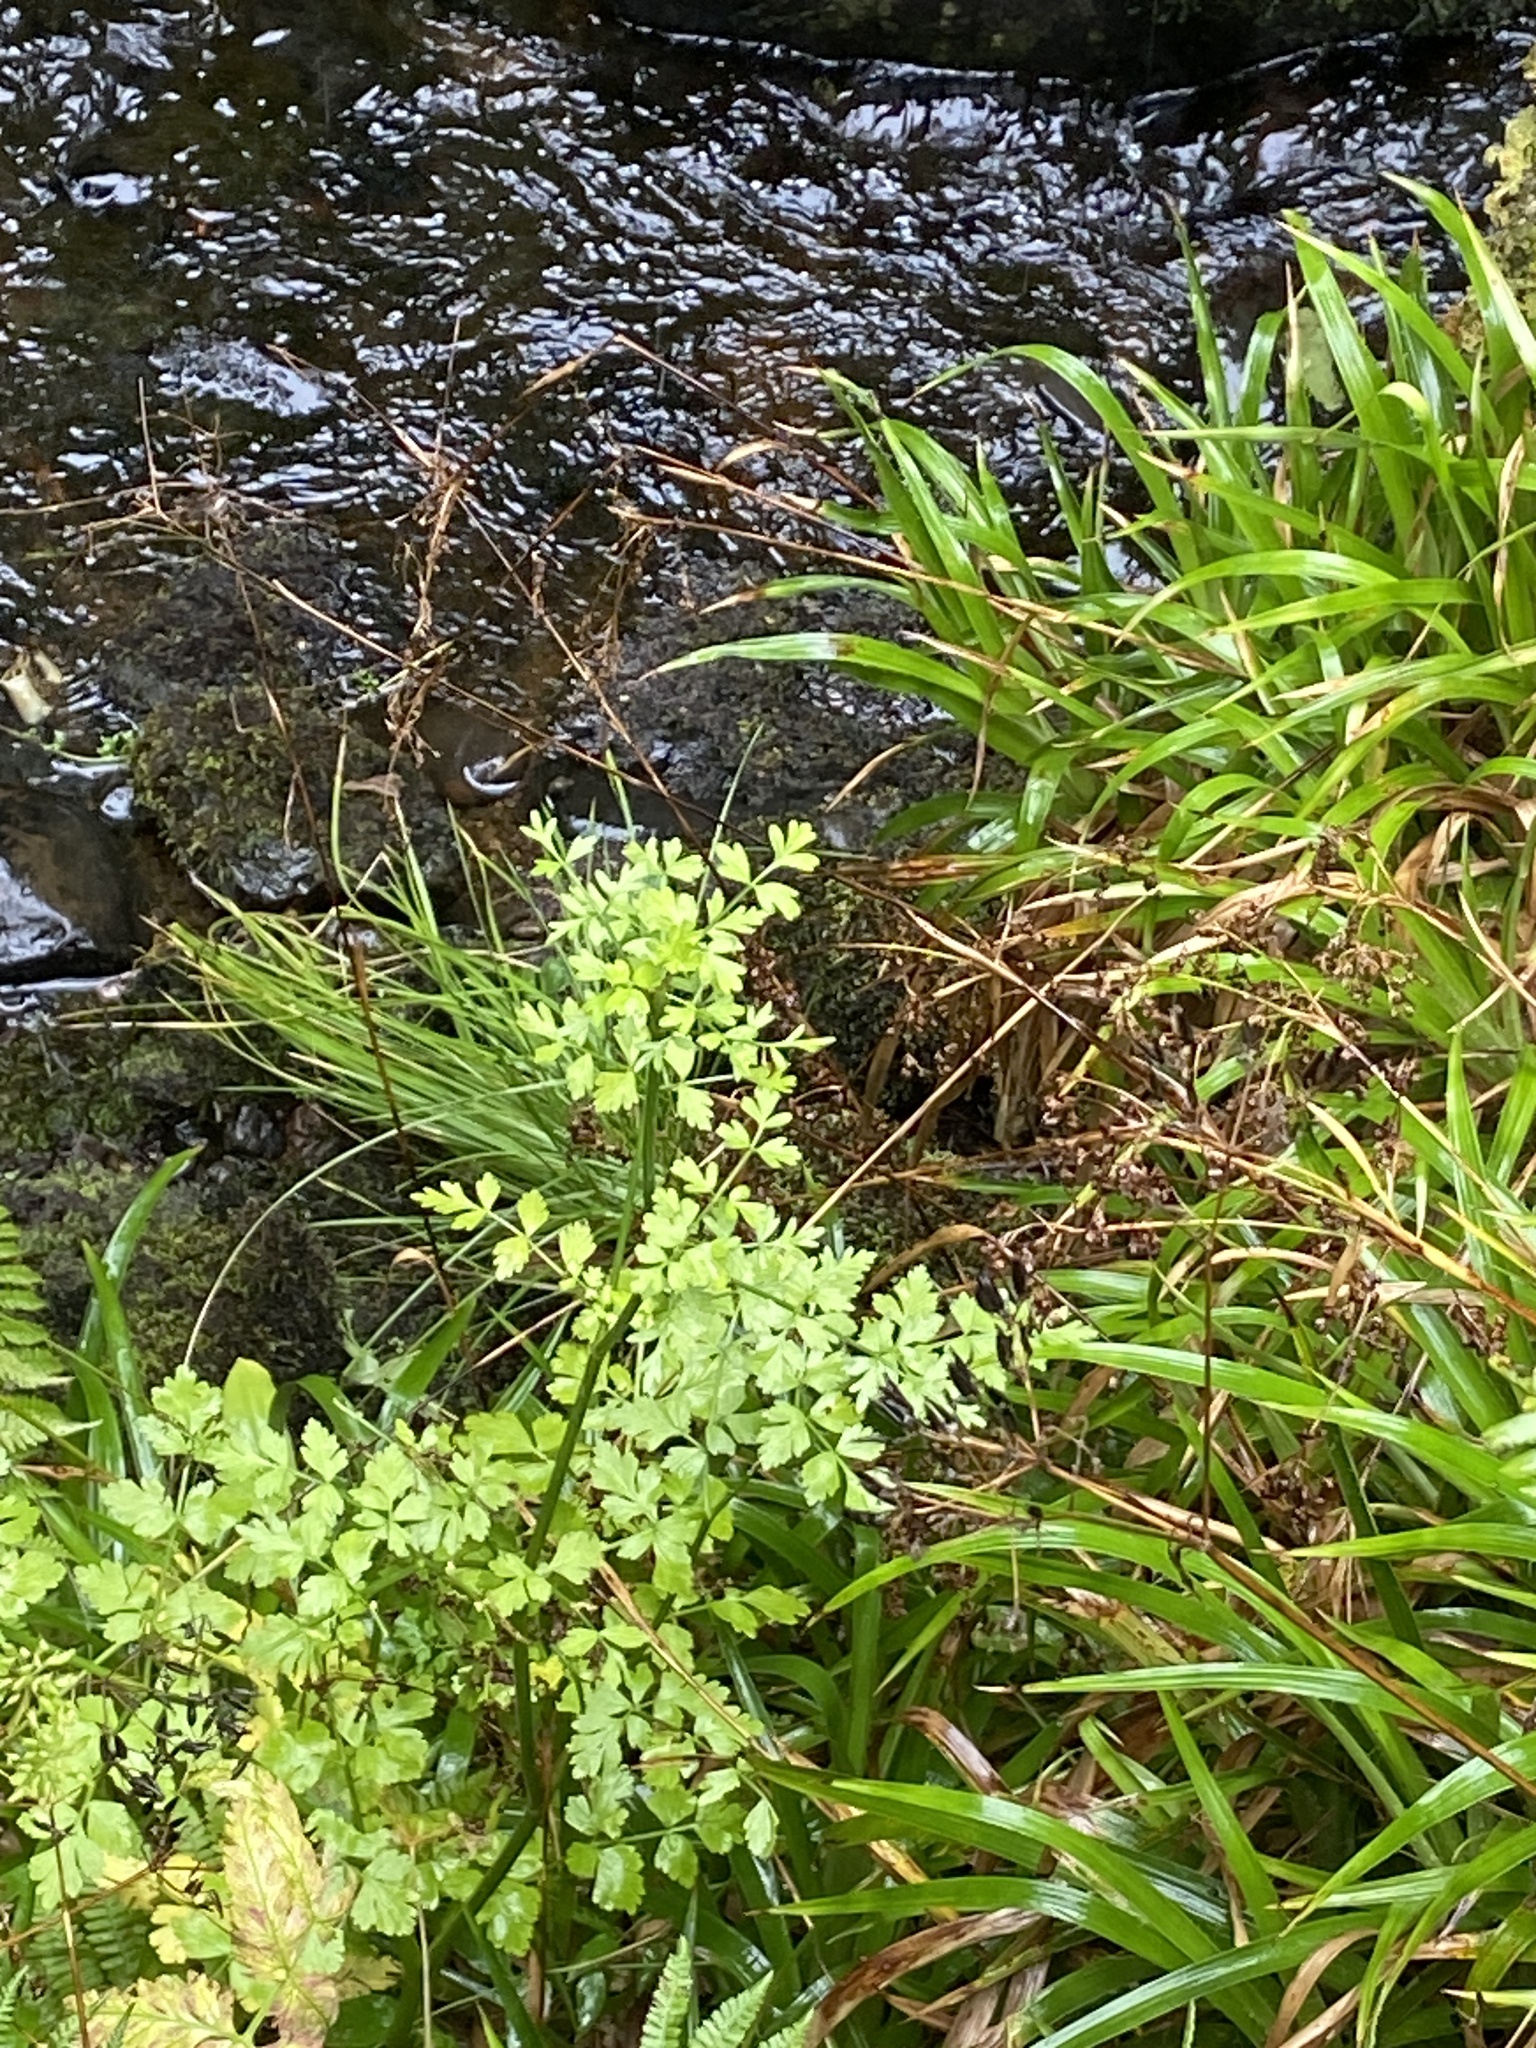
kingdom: Plantae
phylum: Tracheophyta
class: Magnoliopsida
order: Apiales
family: Apiaceae
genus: Oenanthe
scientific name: Oenanthe crocata
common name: Hemlock water-dropwort
